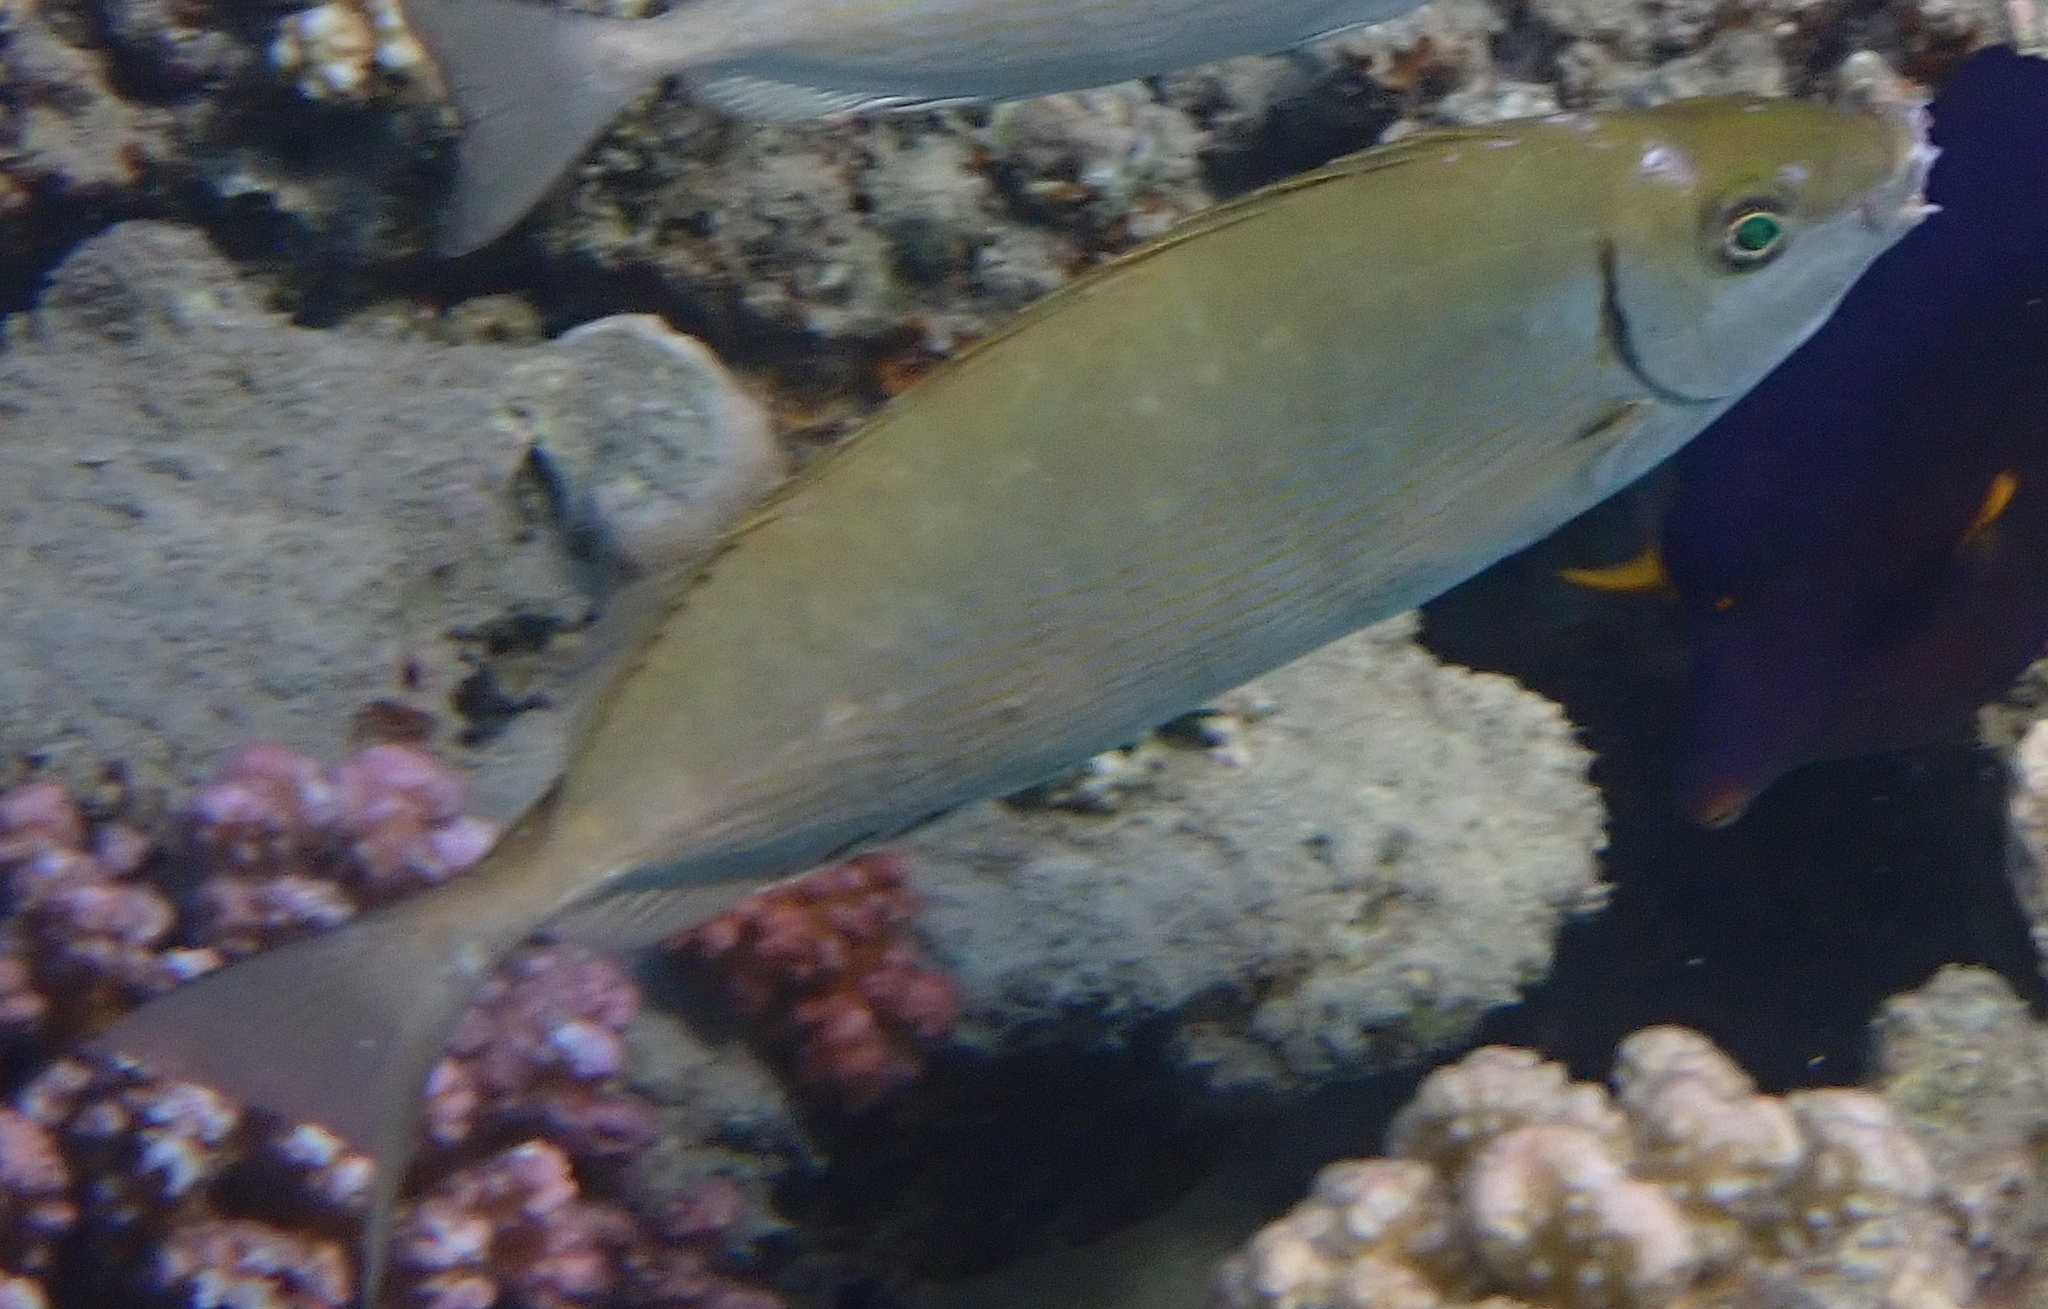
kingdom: Animalia
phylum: Chordata
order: Perciformes
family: Siganidae
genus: Siganus
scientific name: Siganus rivulatus
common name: Marbled spinefoot
